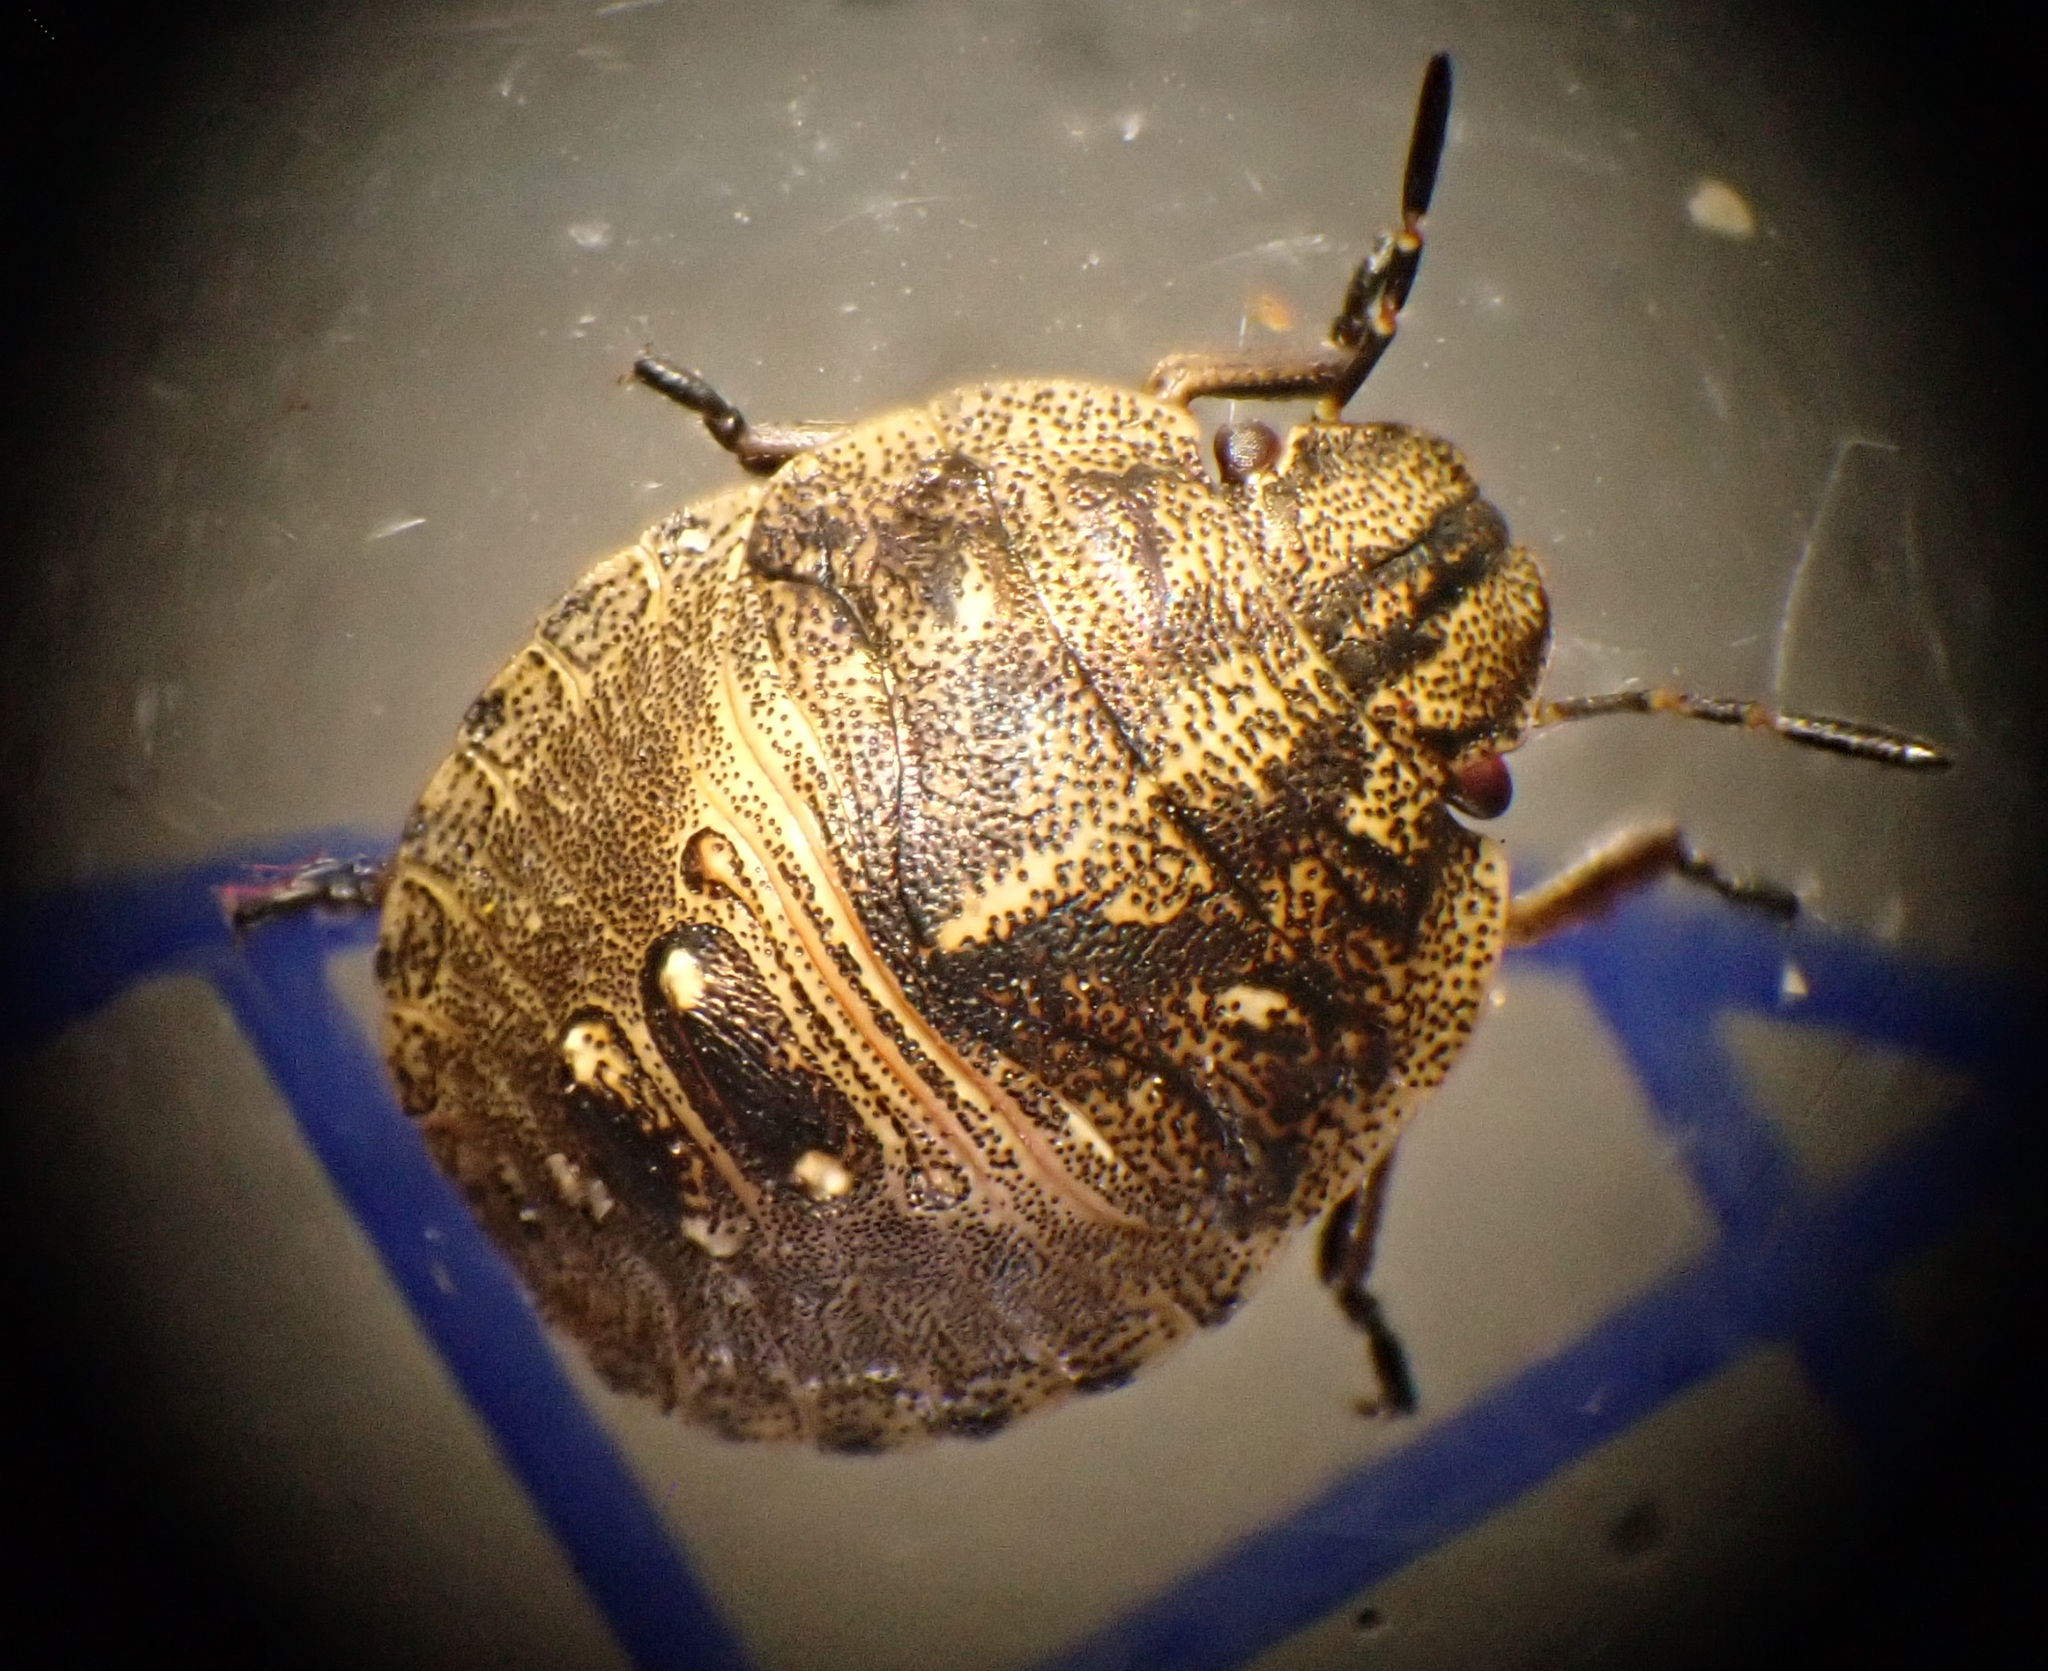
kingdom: Animalia
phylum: Arthropoda
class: Insecta
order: Hemiptera
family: Scutelleridae
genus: Eurygaster
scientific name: Eurygaster testudinaria
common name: Tortoise bug
